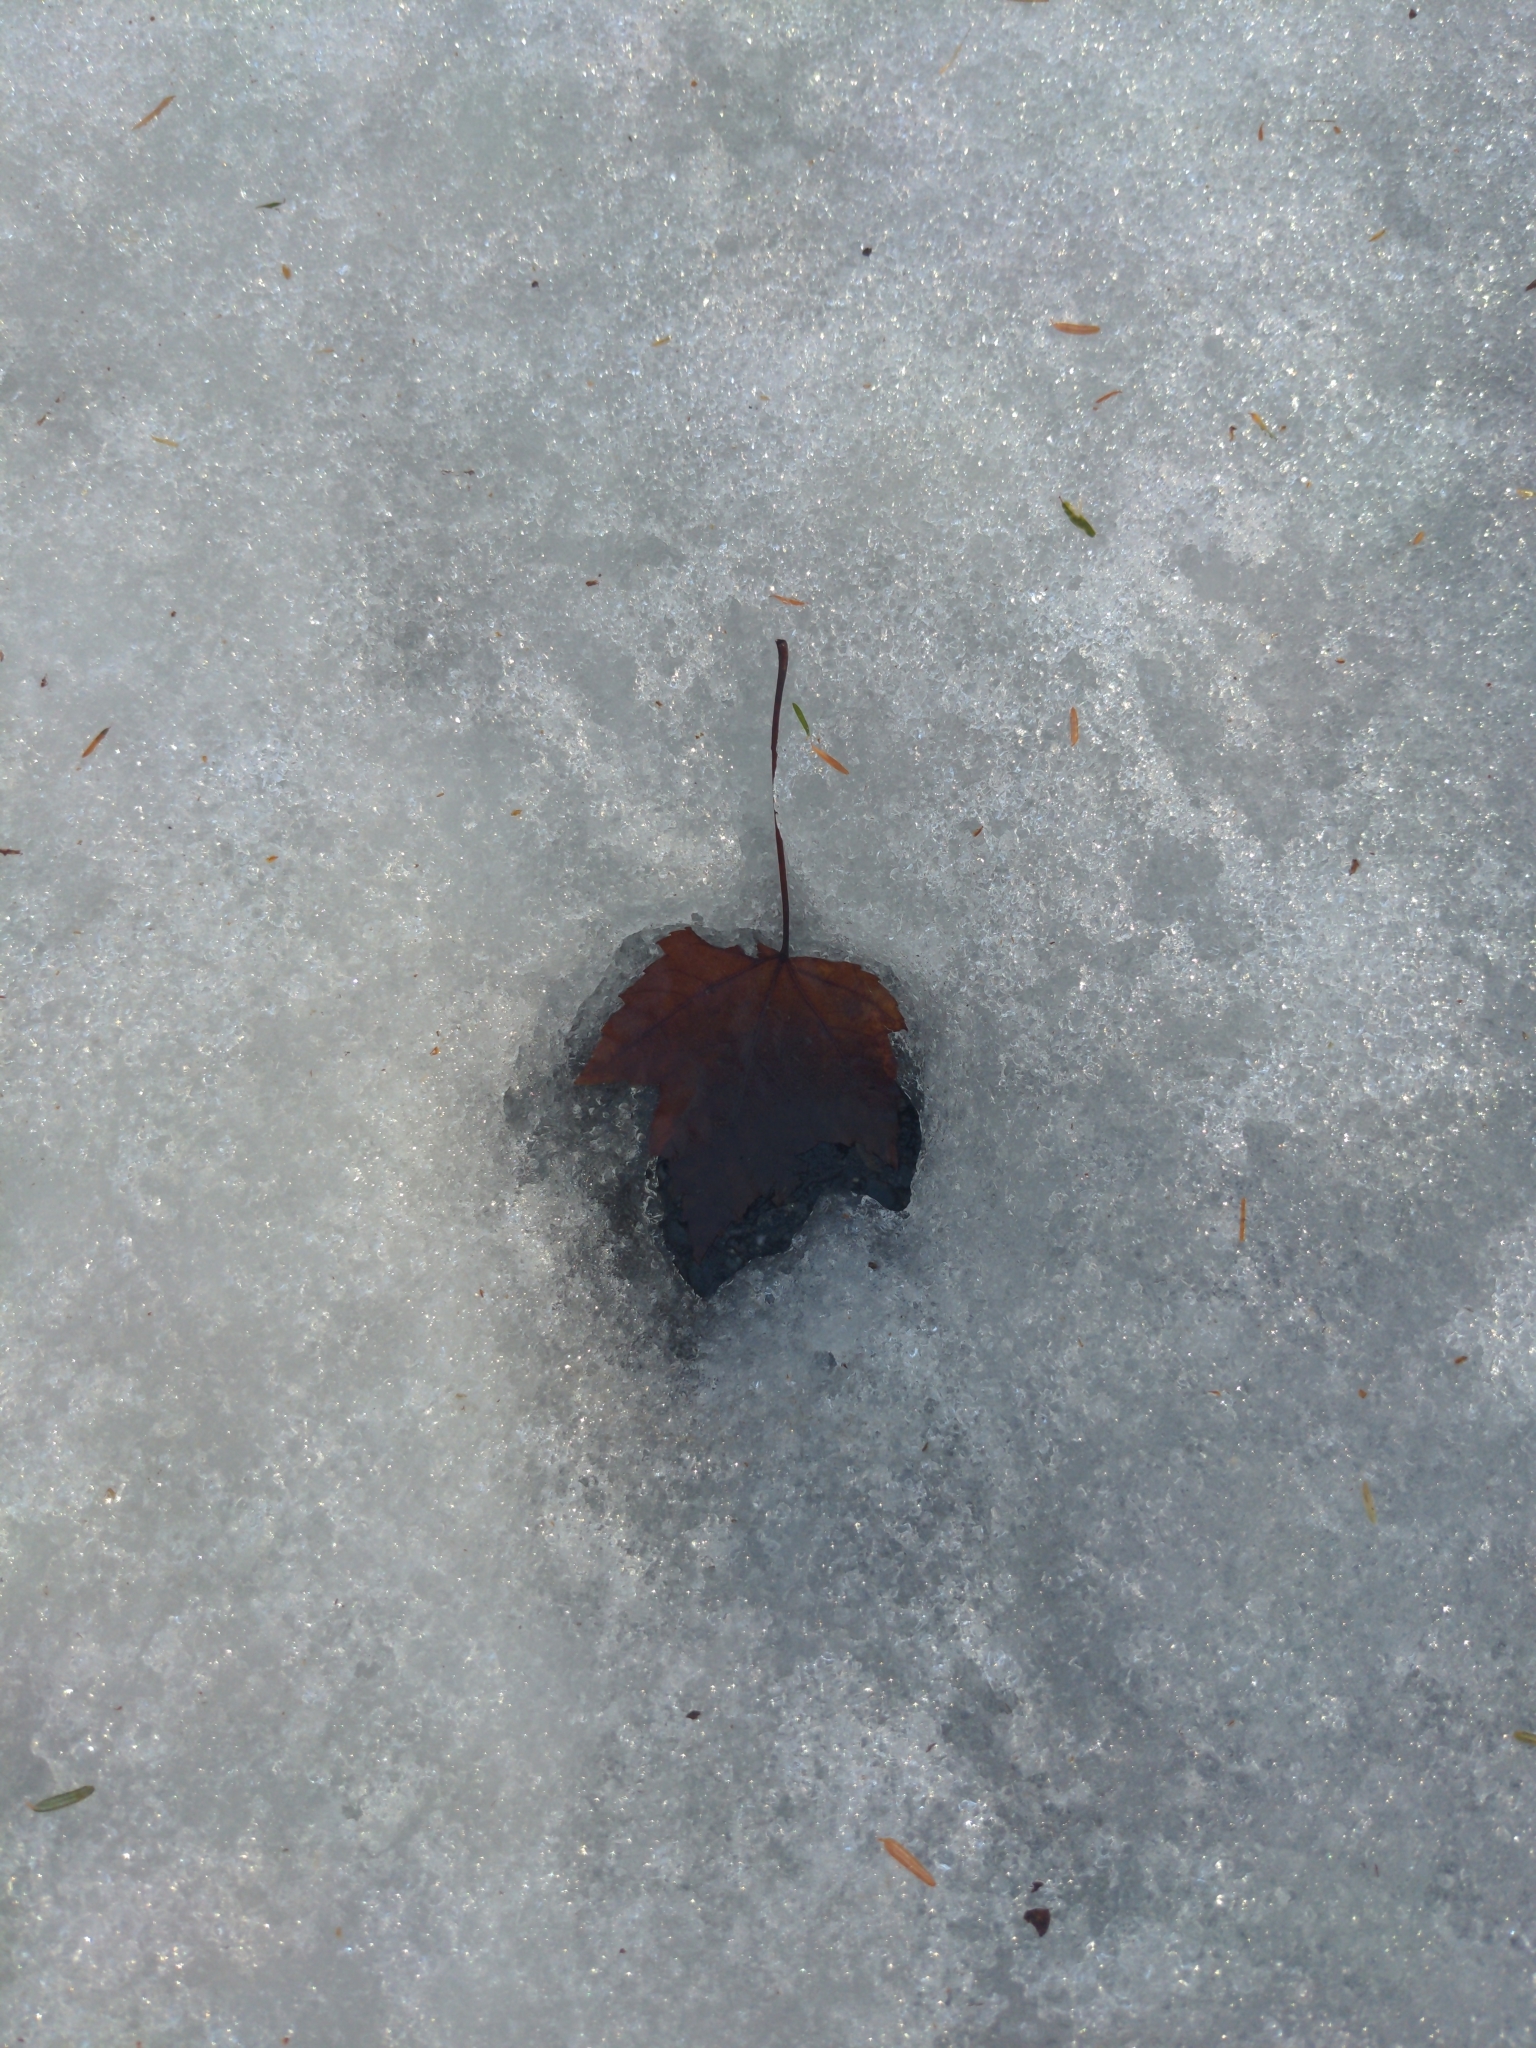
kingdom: Plantae
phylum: Tracheophyta
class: Magnoliopsida
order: Sapindales
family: Sapindaceae
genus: Acer
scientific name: Acer rubrum
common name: Red maple
